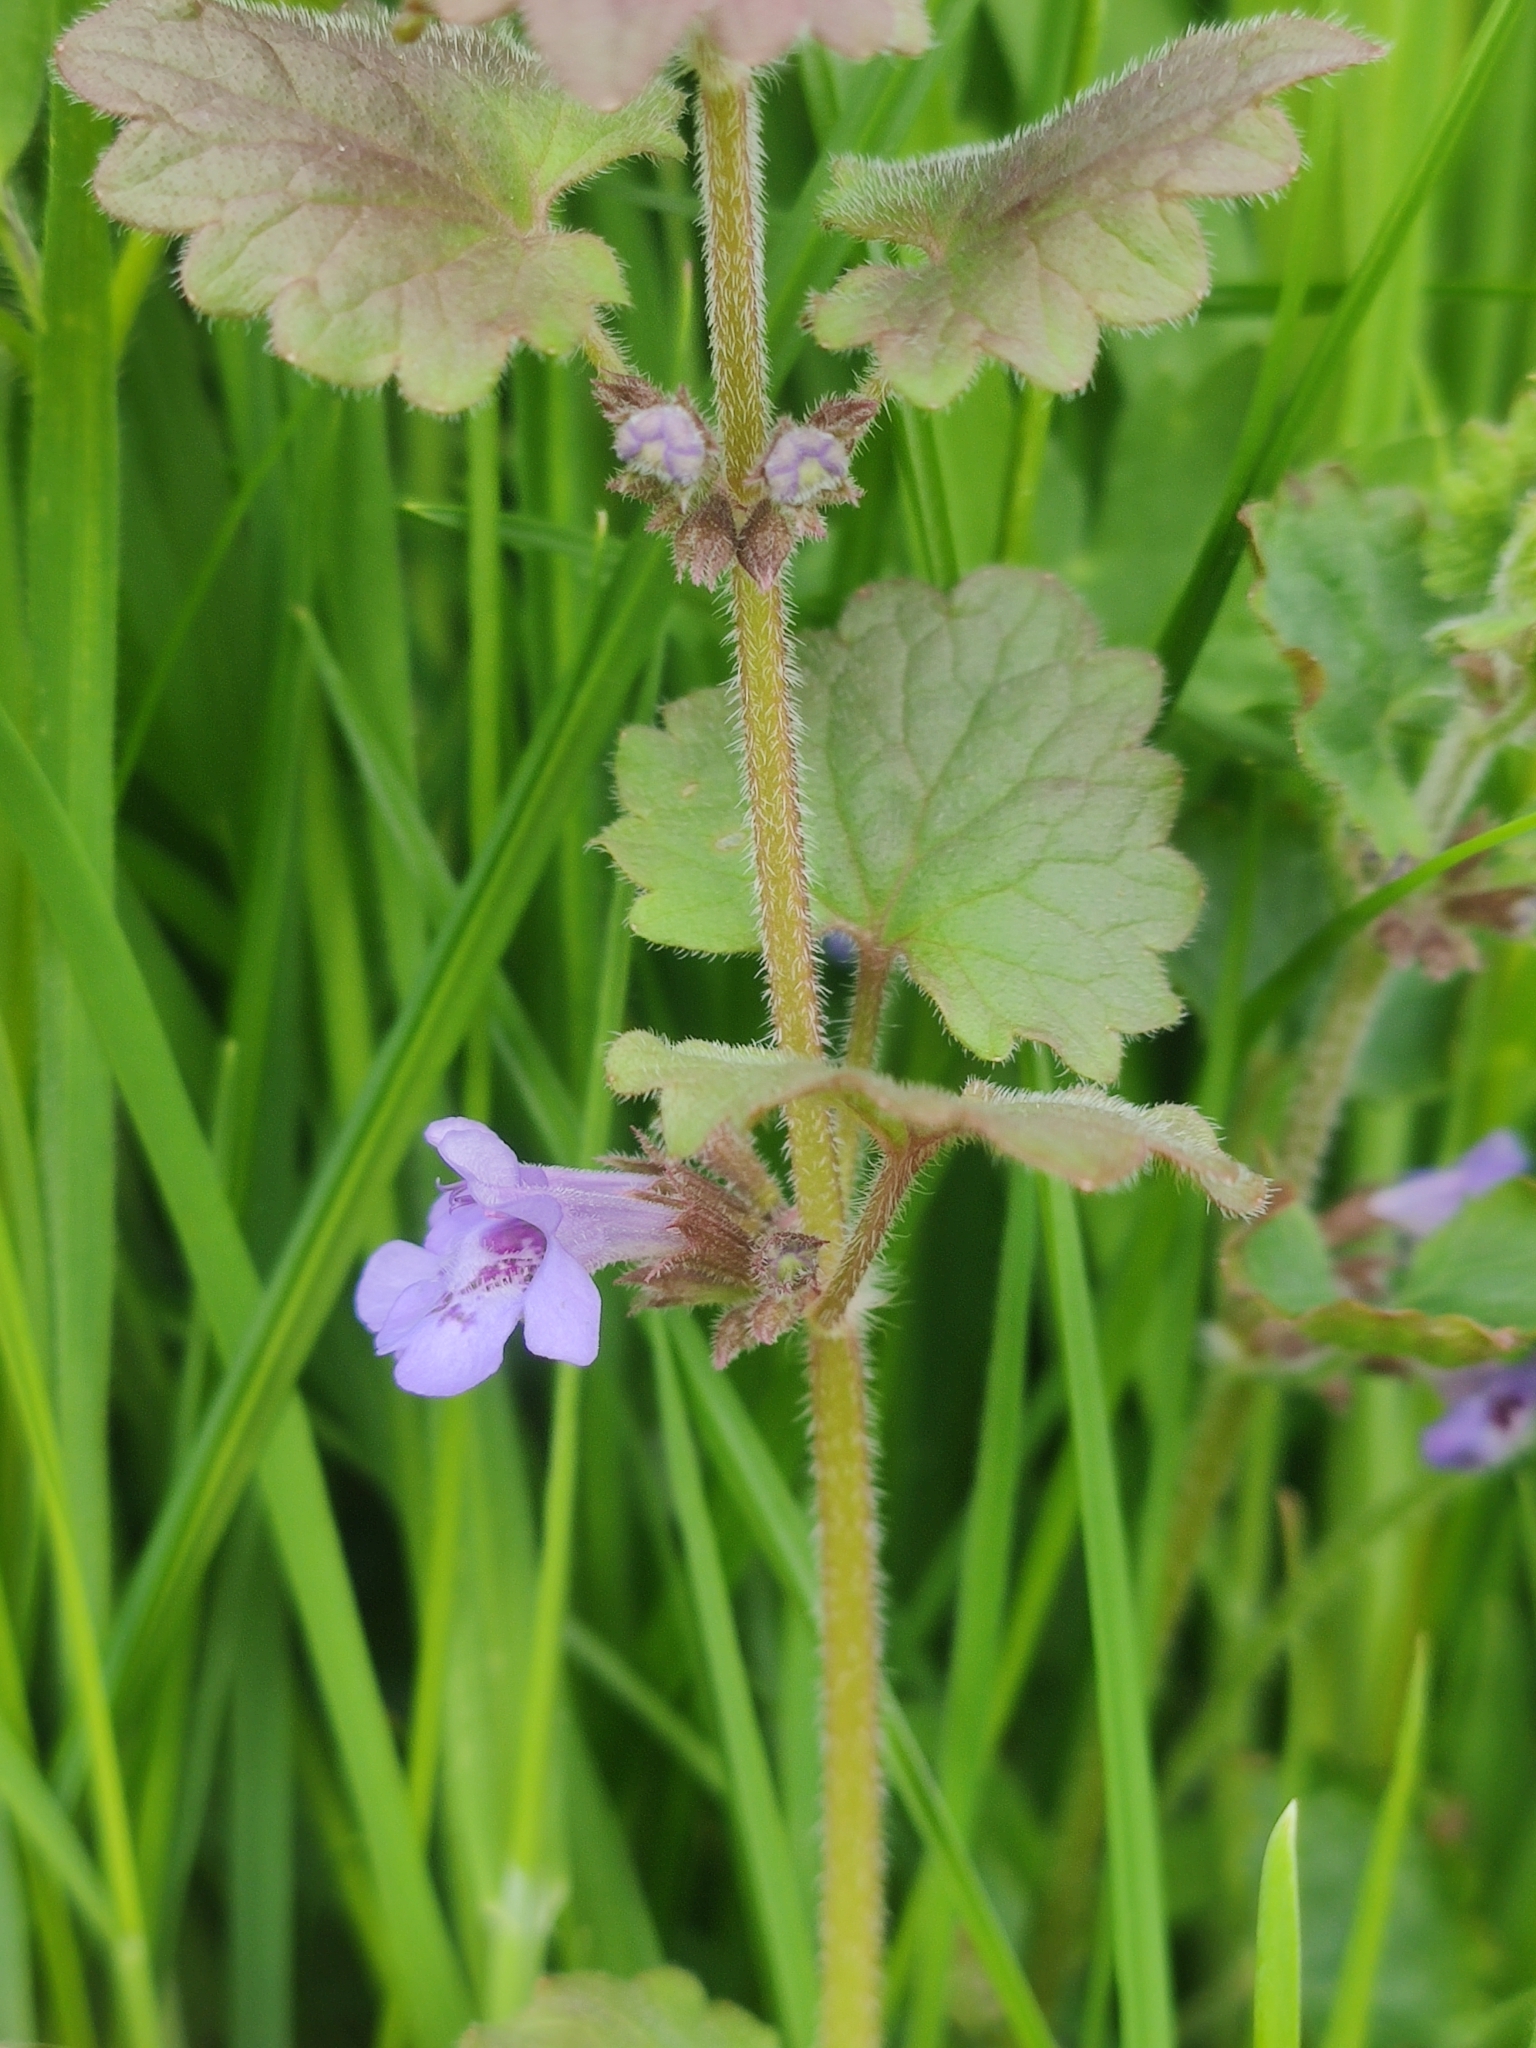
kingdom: Plantae
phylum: Tracheophyta
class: Magnoliopsida
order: Lamiales
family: Lamiaceae
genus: Glechoma
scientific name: Glechoma hederacea
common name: Ground ivy
